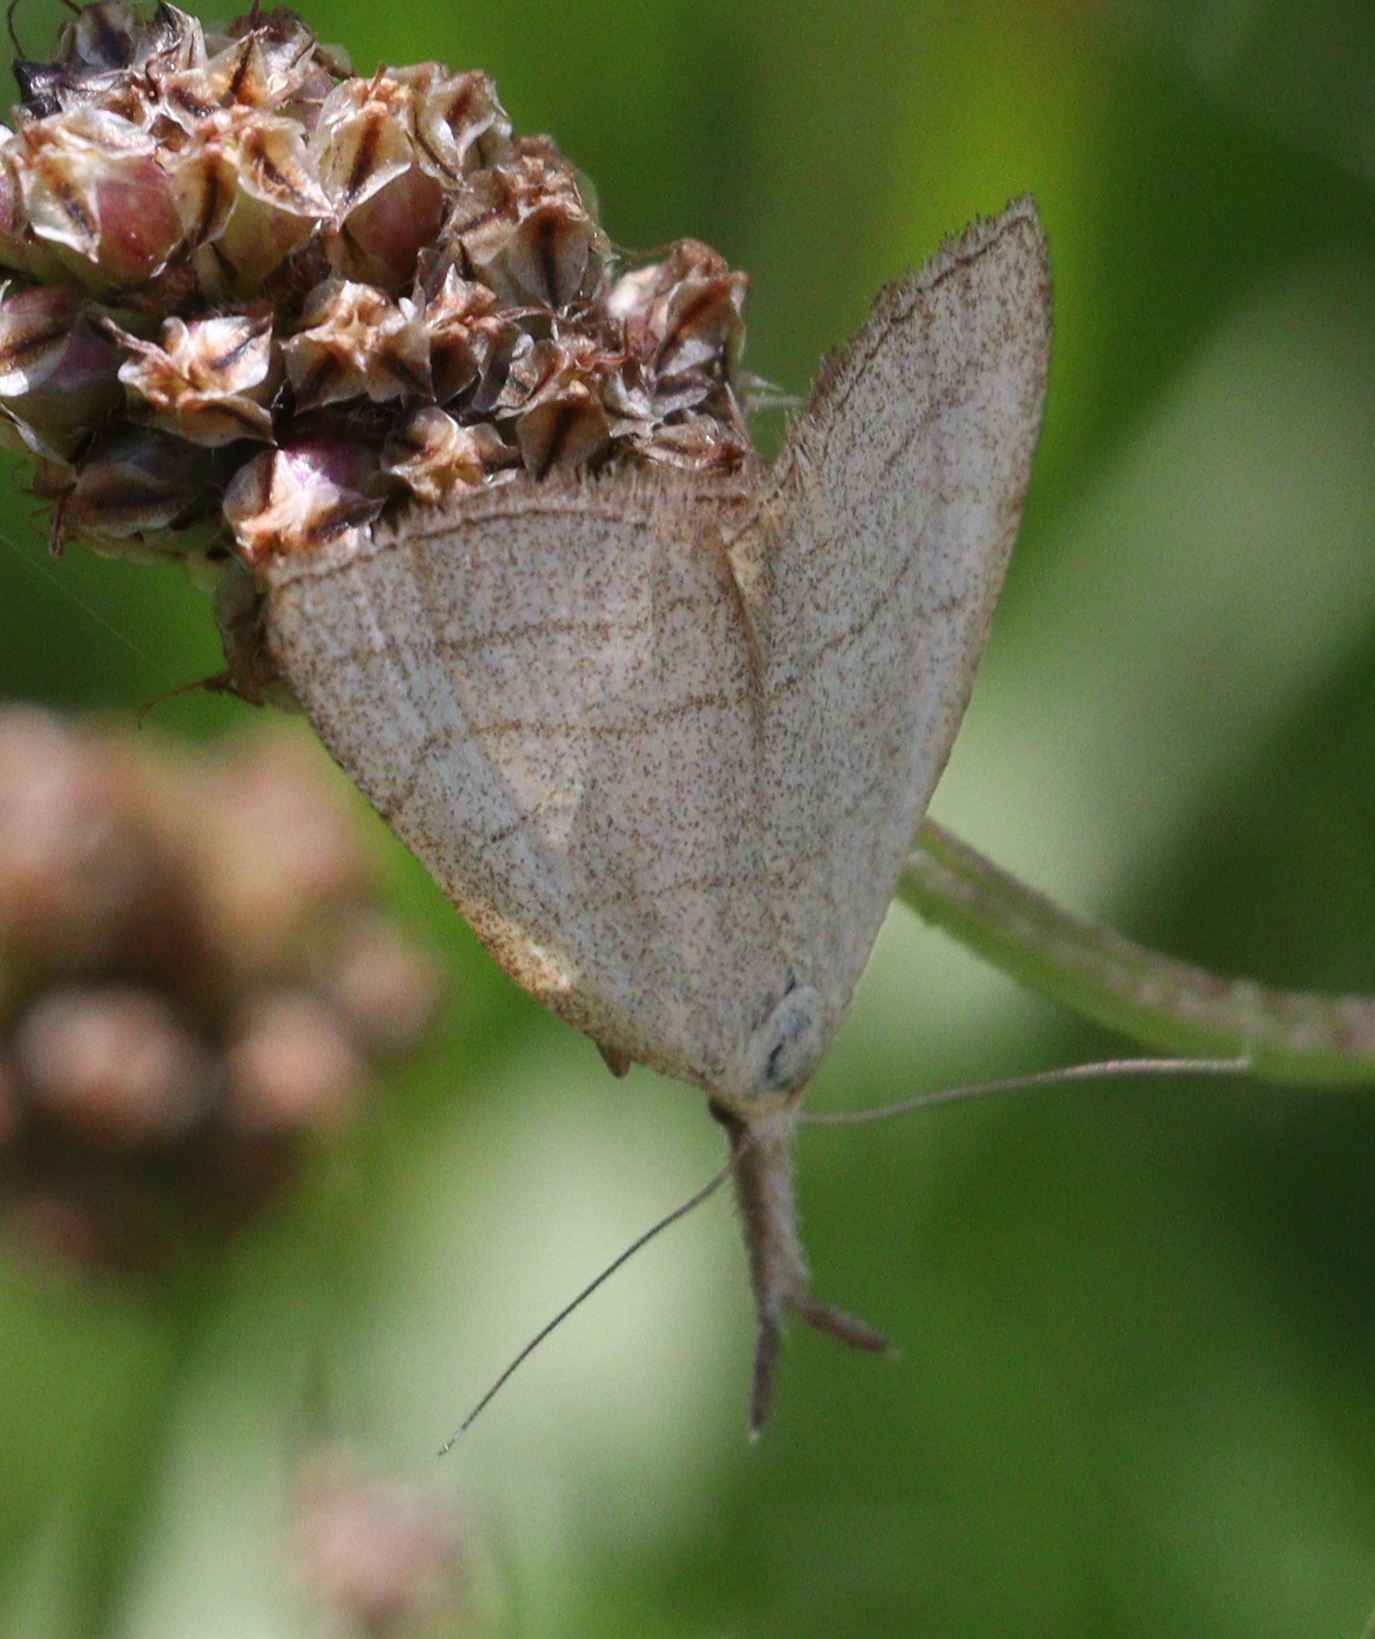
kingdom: Animalia
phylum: Arthropoda
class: Insecta
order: Lepidoptera
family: Erebidae
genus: Polypogon
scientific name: Polypogon tentacularia
